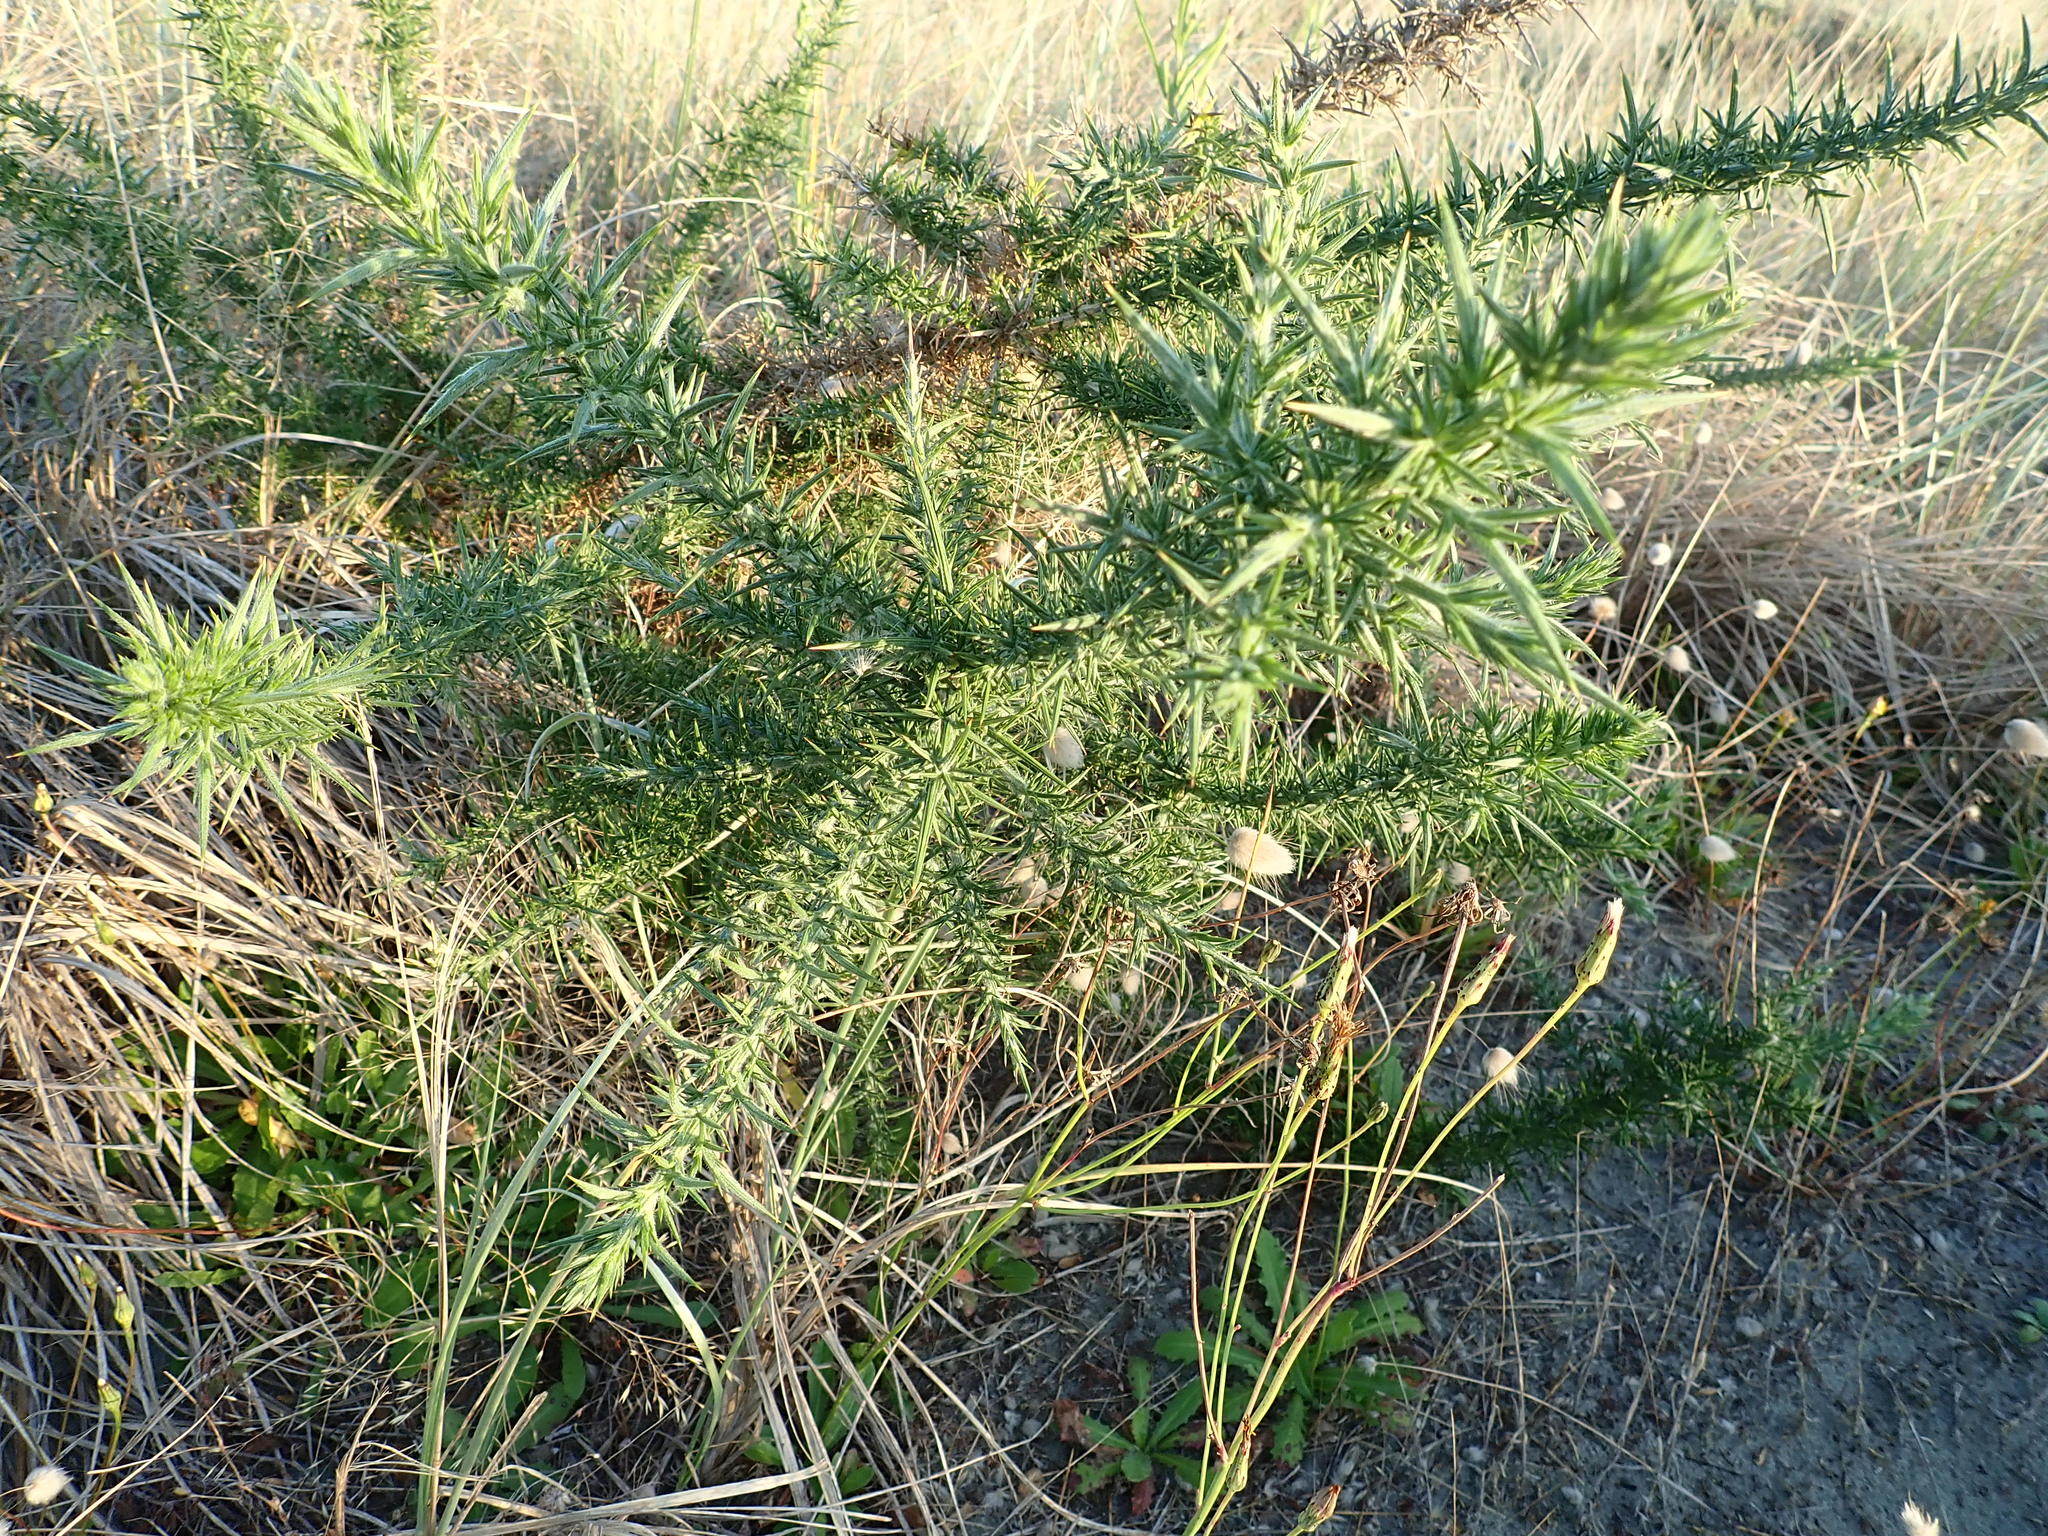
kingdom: Plantae
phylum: Tracheophyta
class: Magnoliopsida
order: Fabales
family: Fabaceae
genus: Ulex
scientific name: Ulex europaeus
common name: Common gorse
